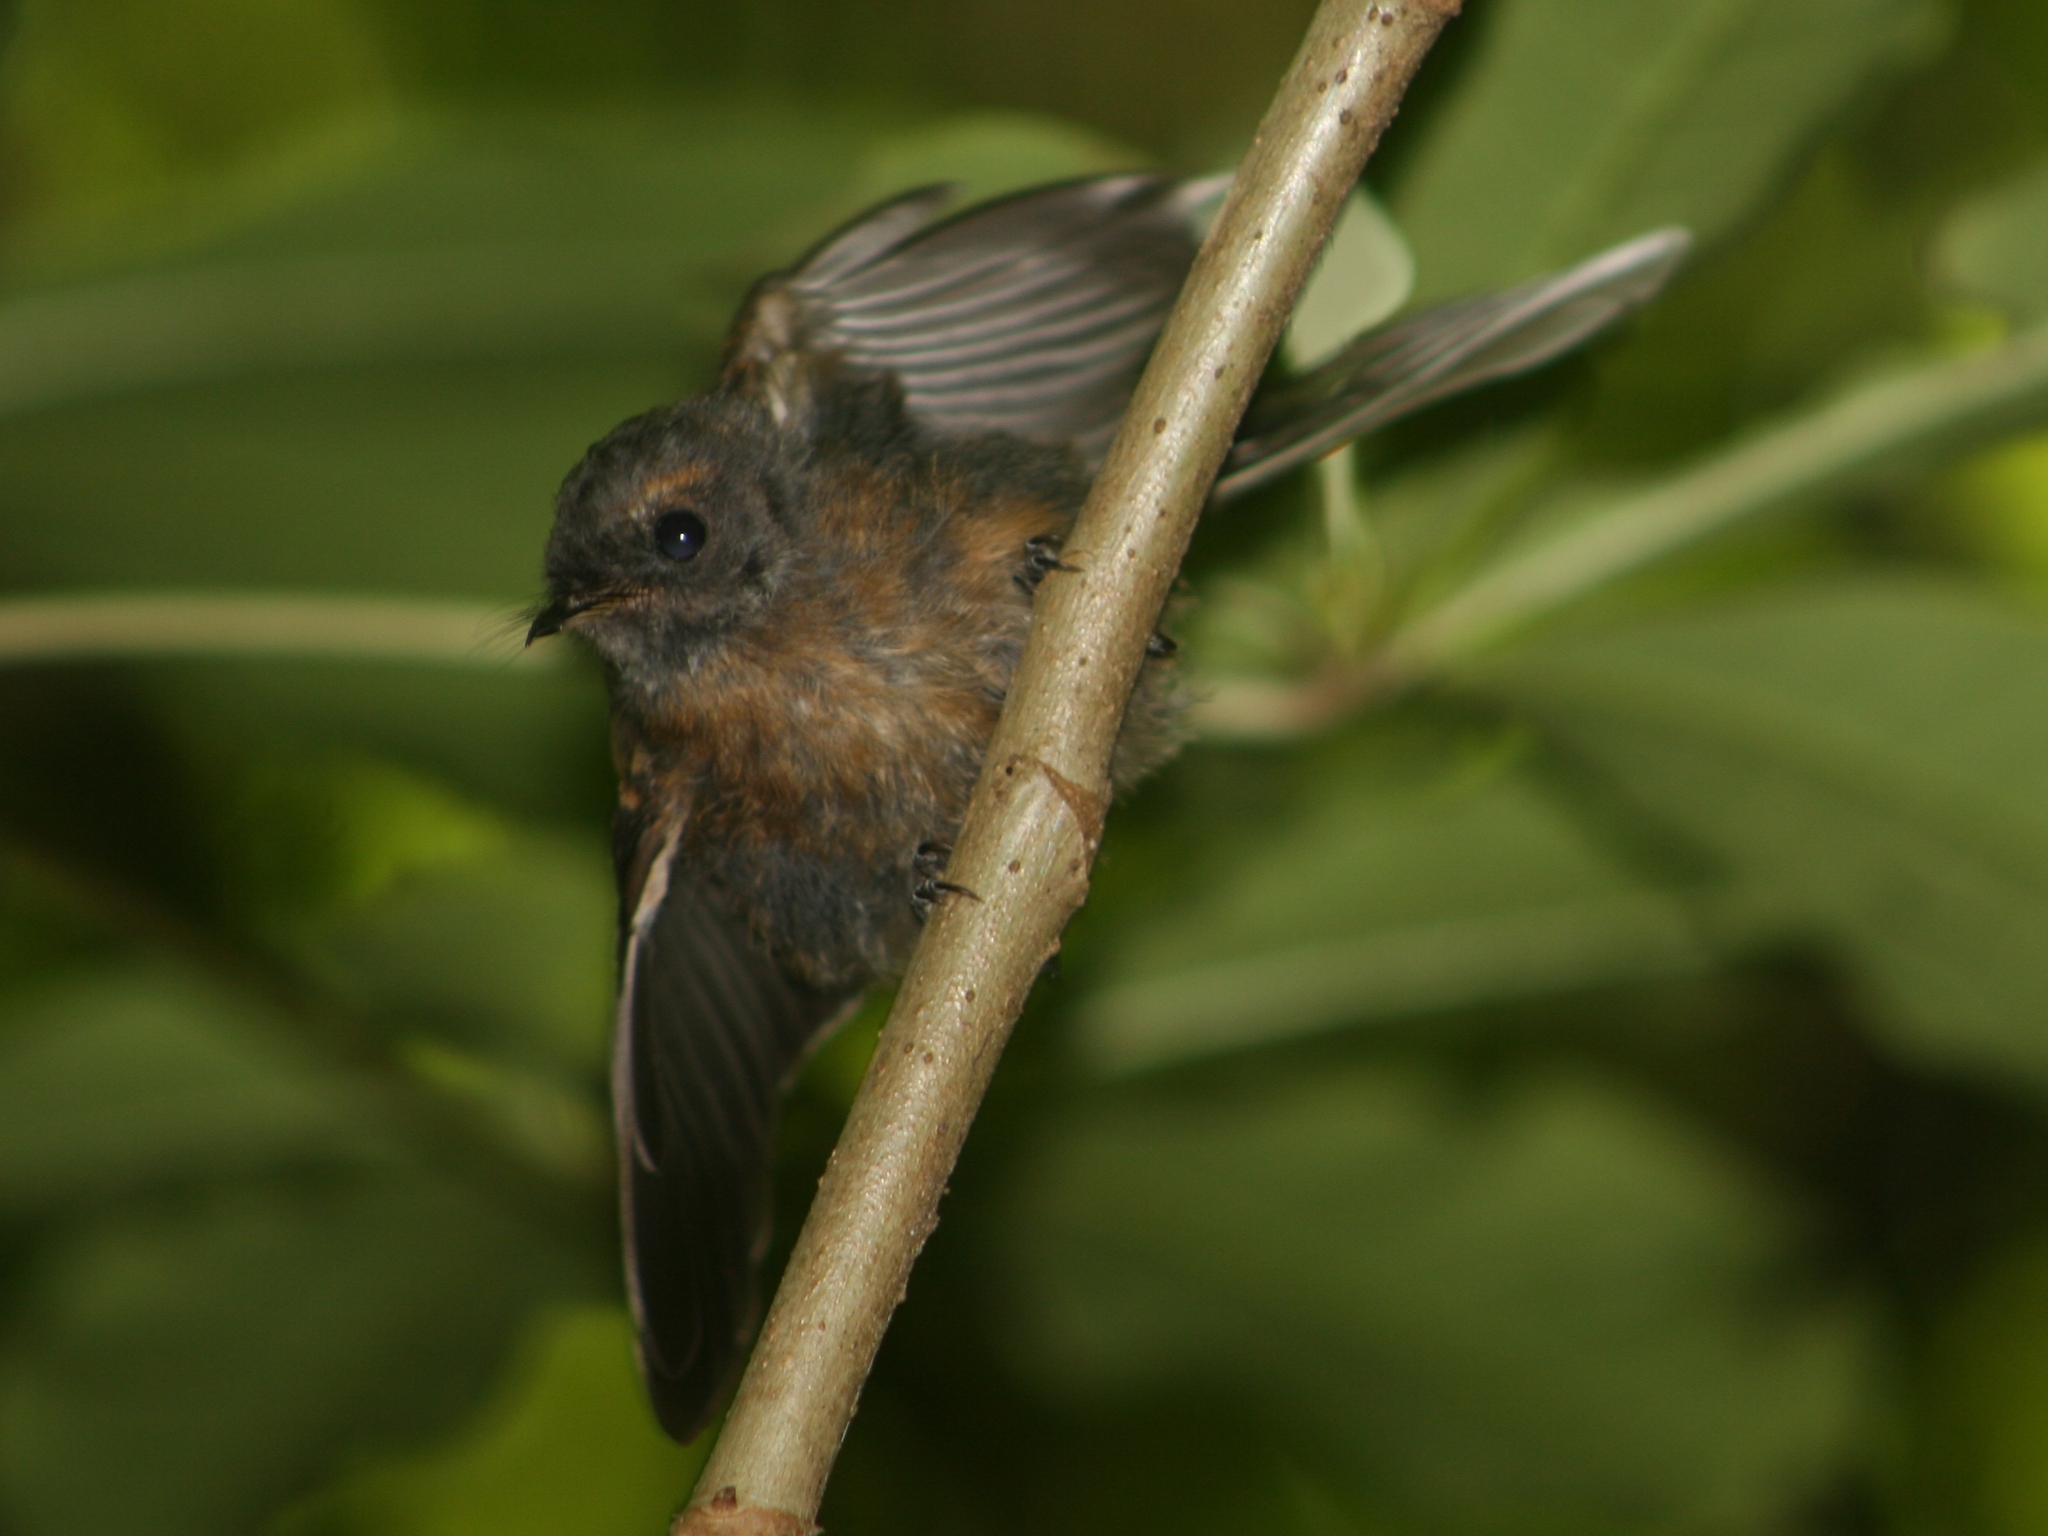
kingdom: Animalia
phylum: Chordata
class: Aves
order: Passeriformes
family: Rhipiduridae
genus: Rhipidura
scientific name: Rhipidura fuliginosa
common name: New zealand fantail
